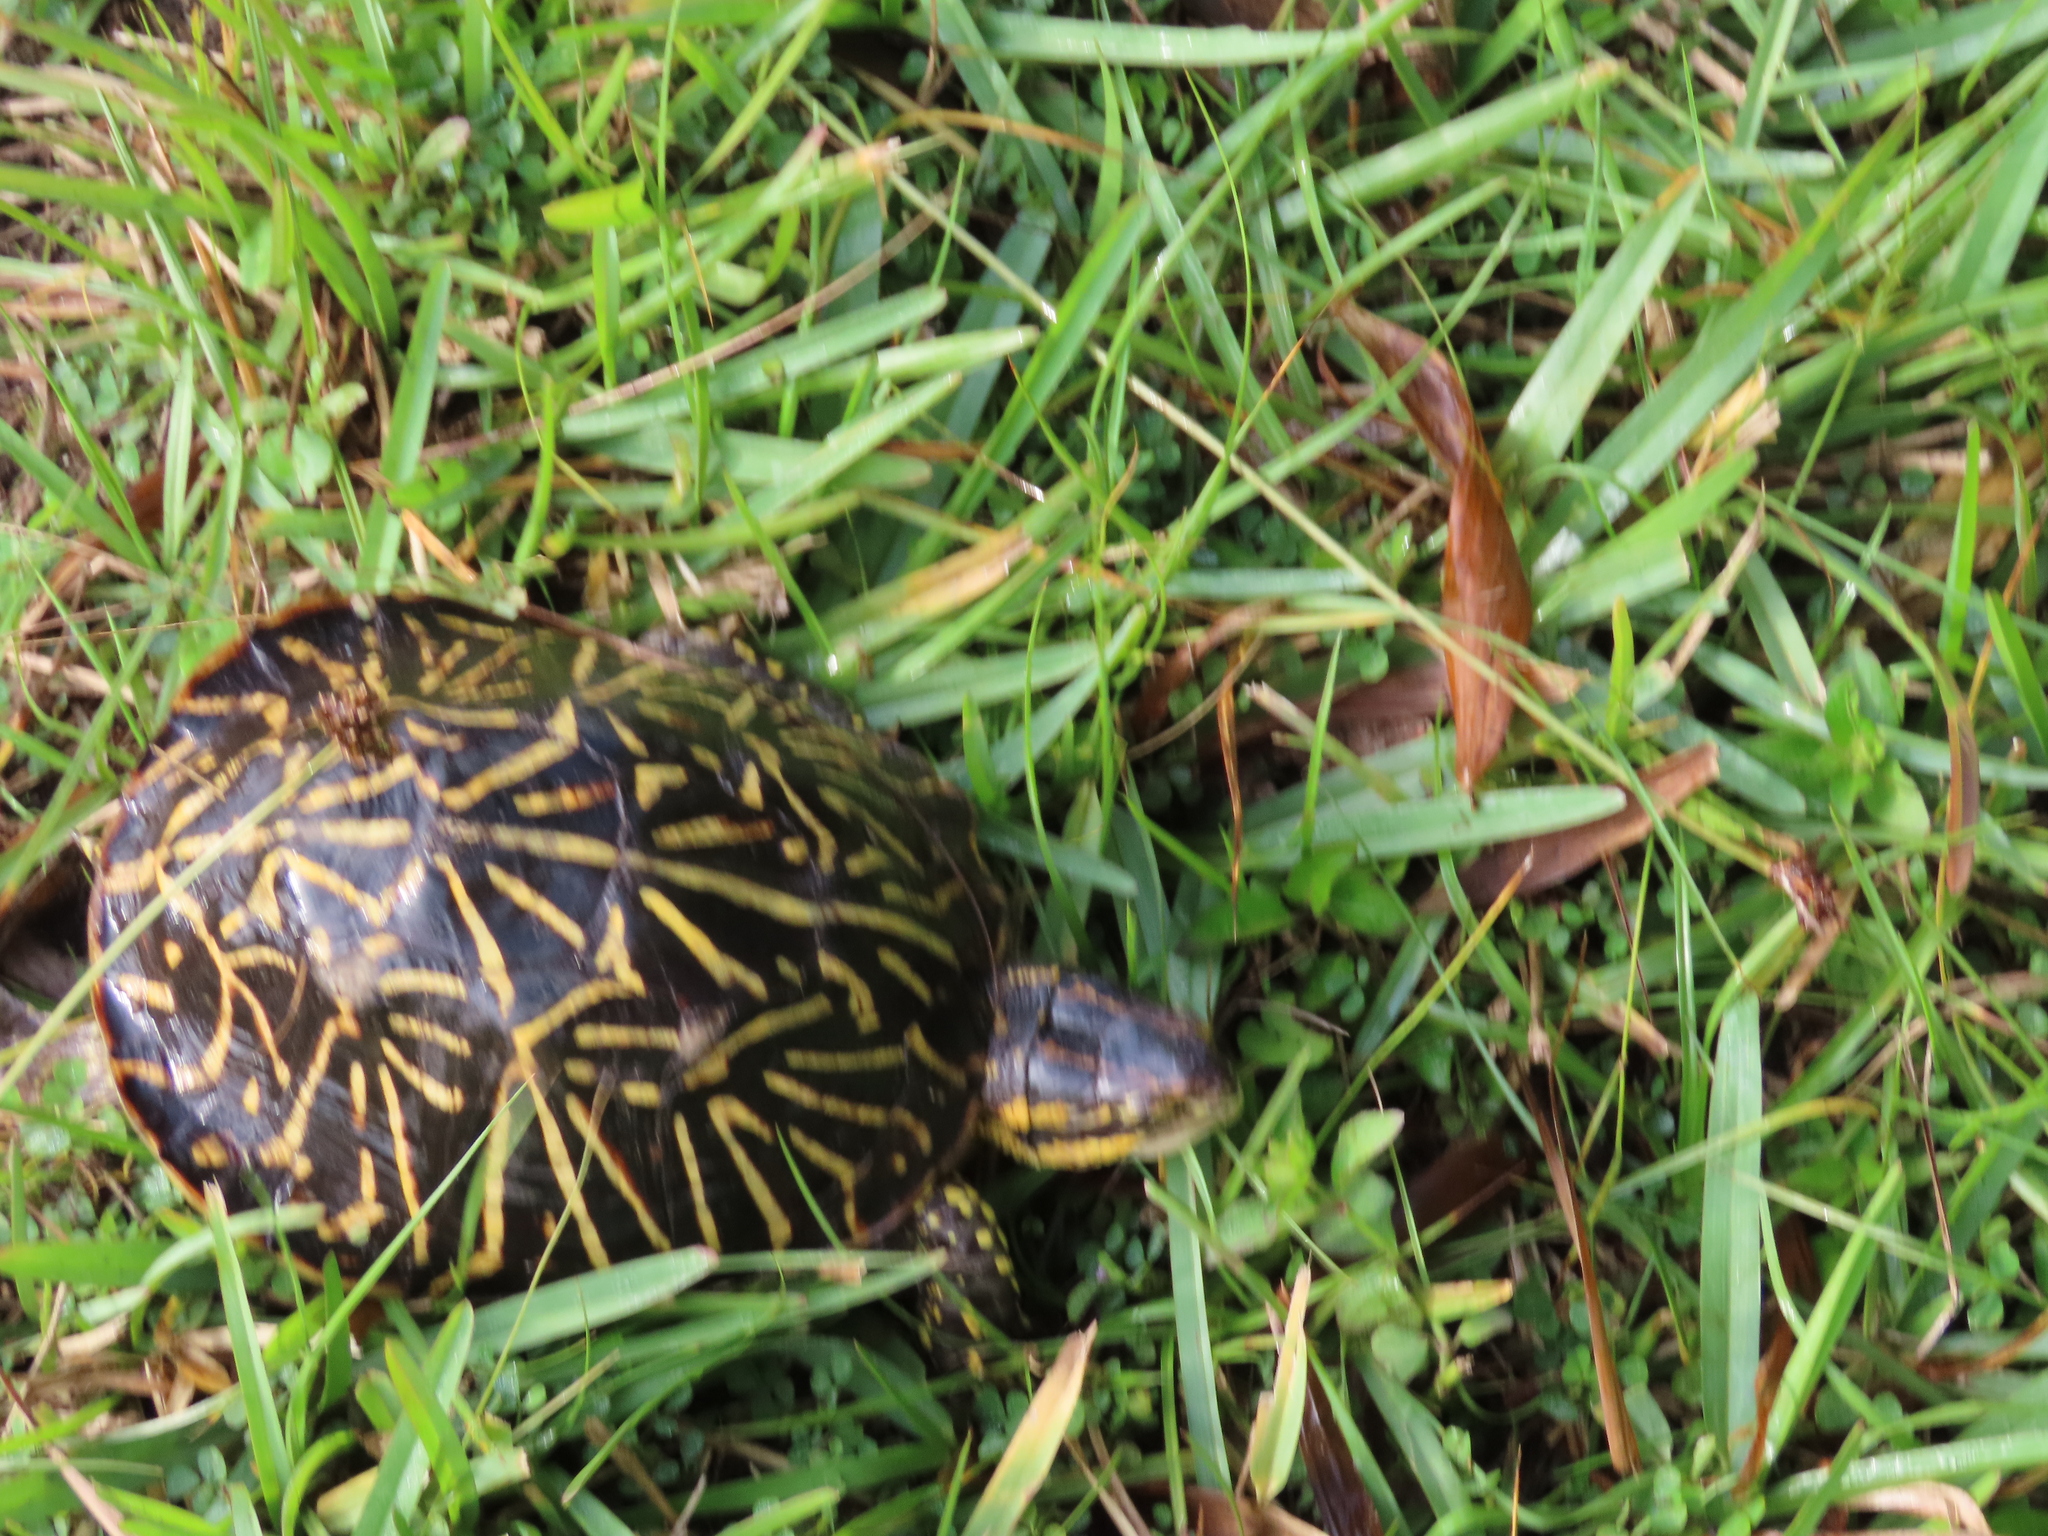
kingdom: Animalia
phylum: Chordata
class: Testudines
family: Emydidae
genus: Terrapene
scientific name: Terrapene carolina
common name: Common box turtle
